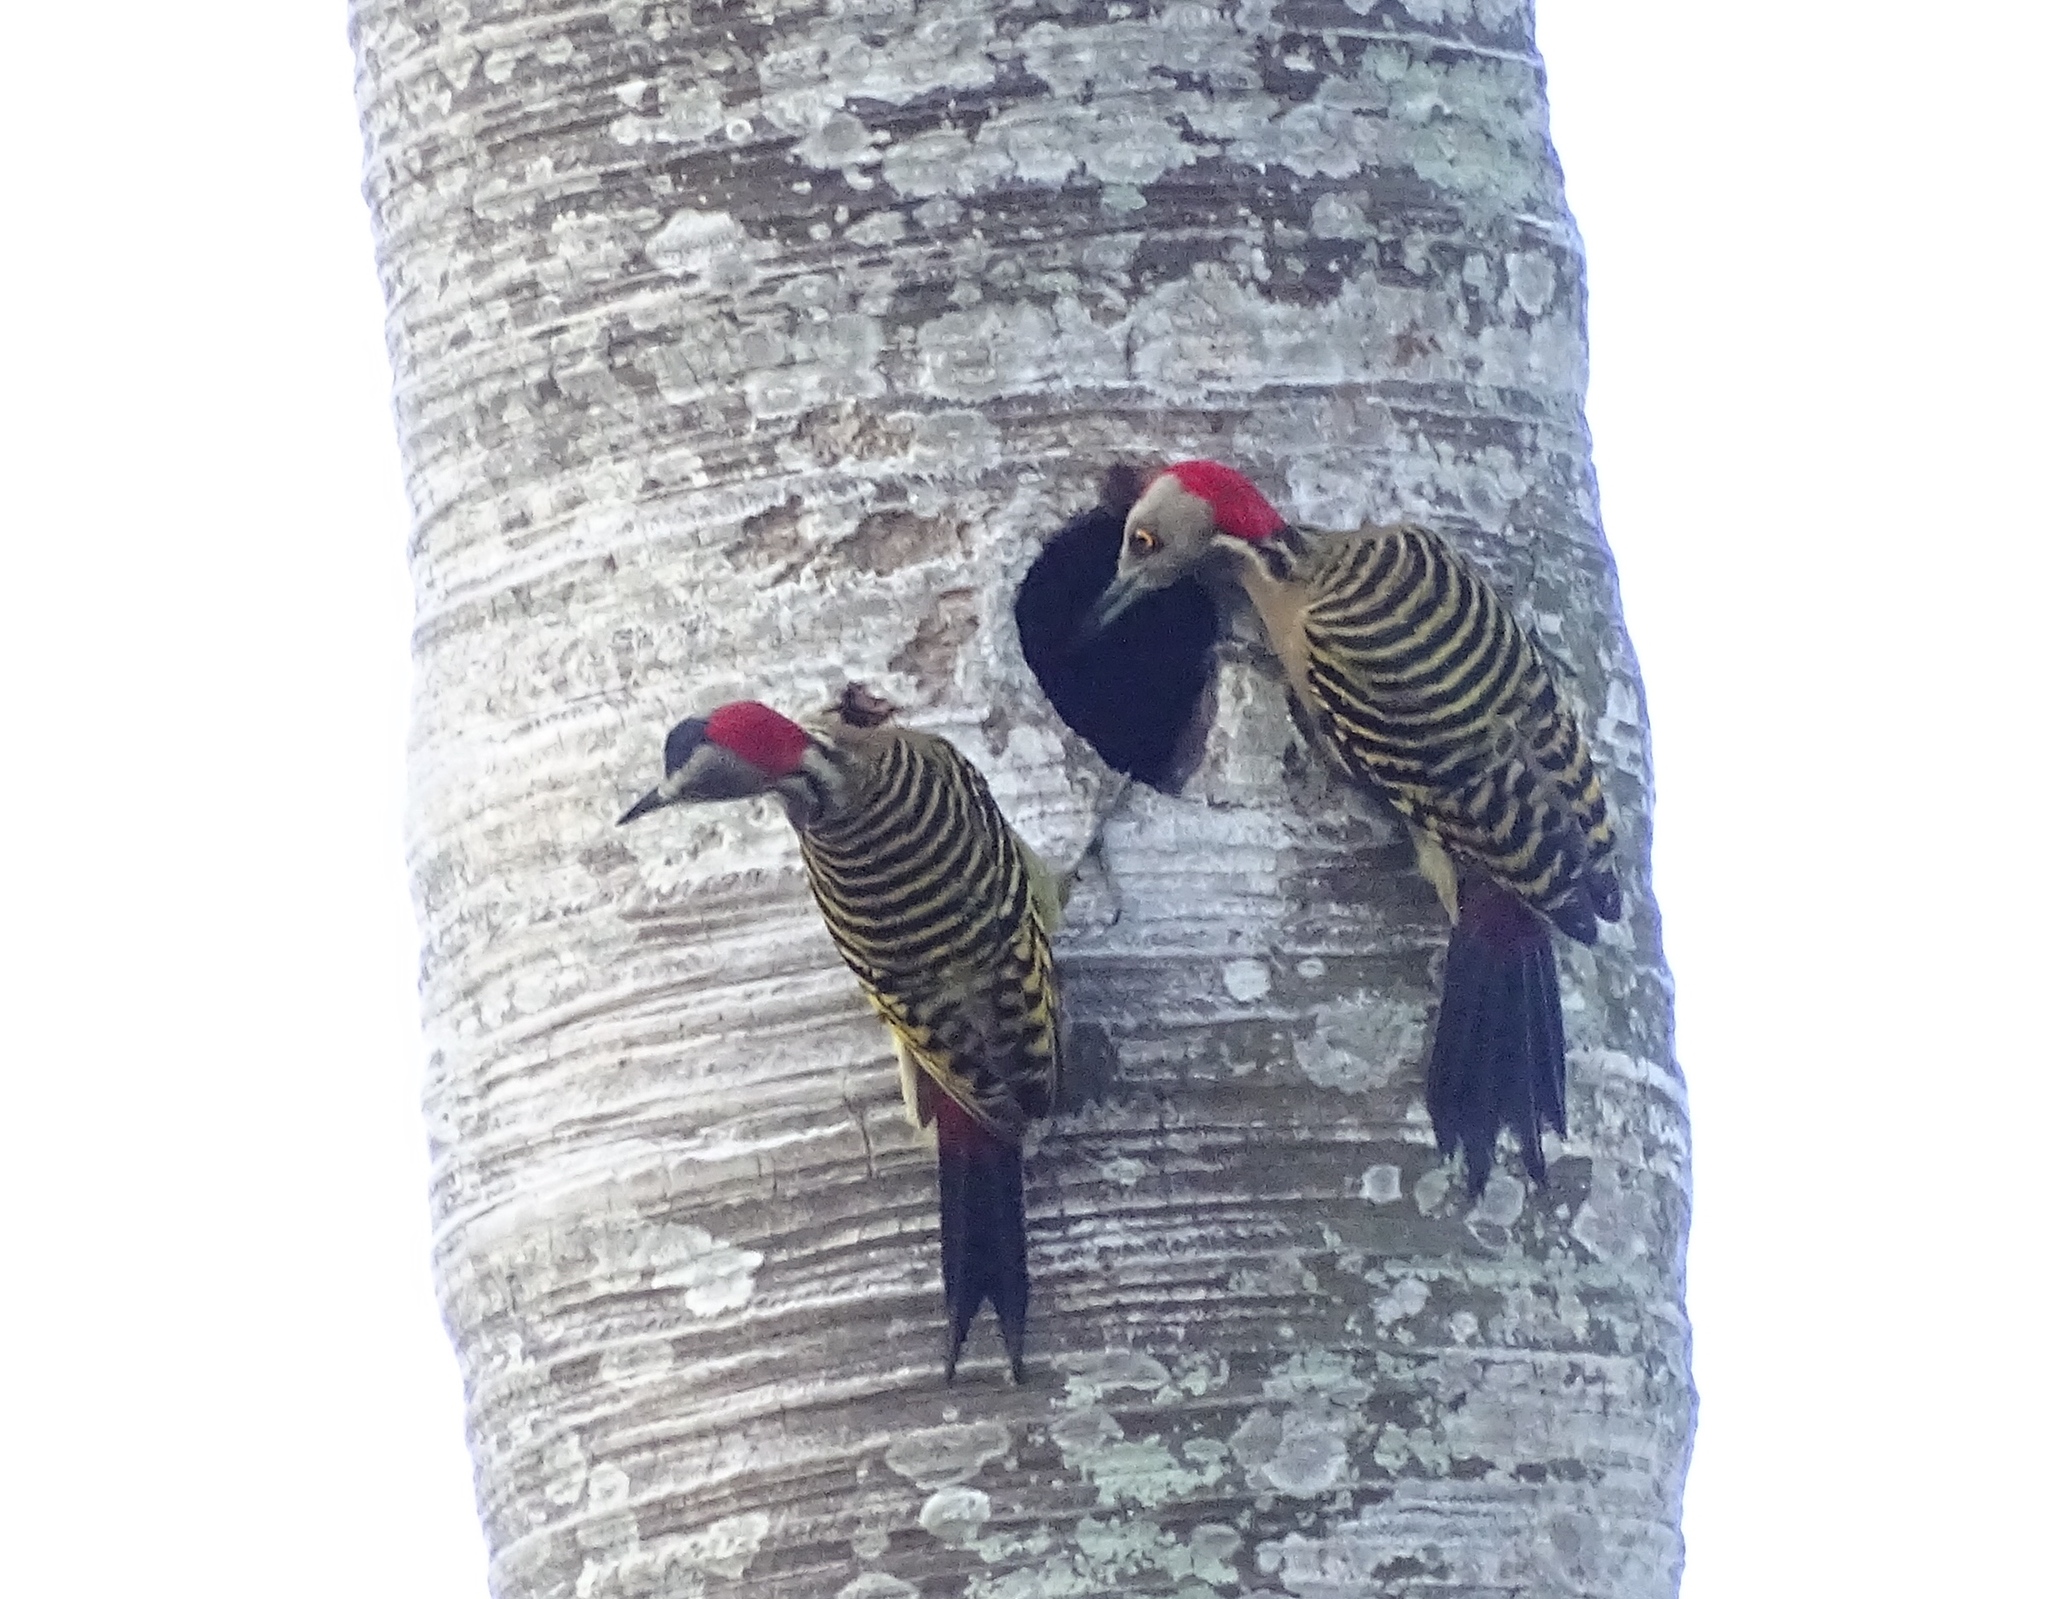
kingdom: Animalia
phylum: Chordata
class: Aves
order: Piciformes
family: Picidae
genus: Melanerpes
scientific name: Melanerpes striatus
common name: Hispaniolan woodpecker
